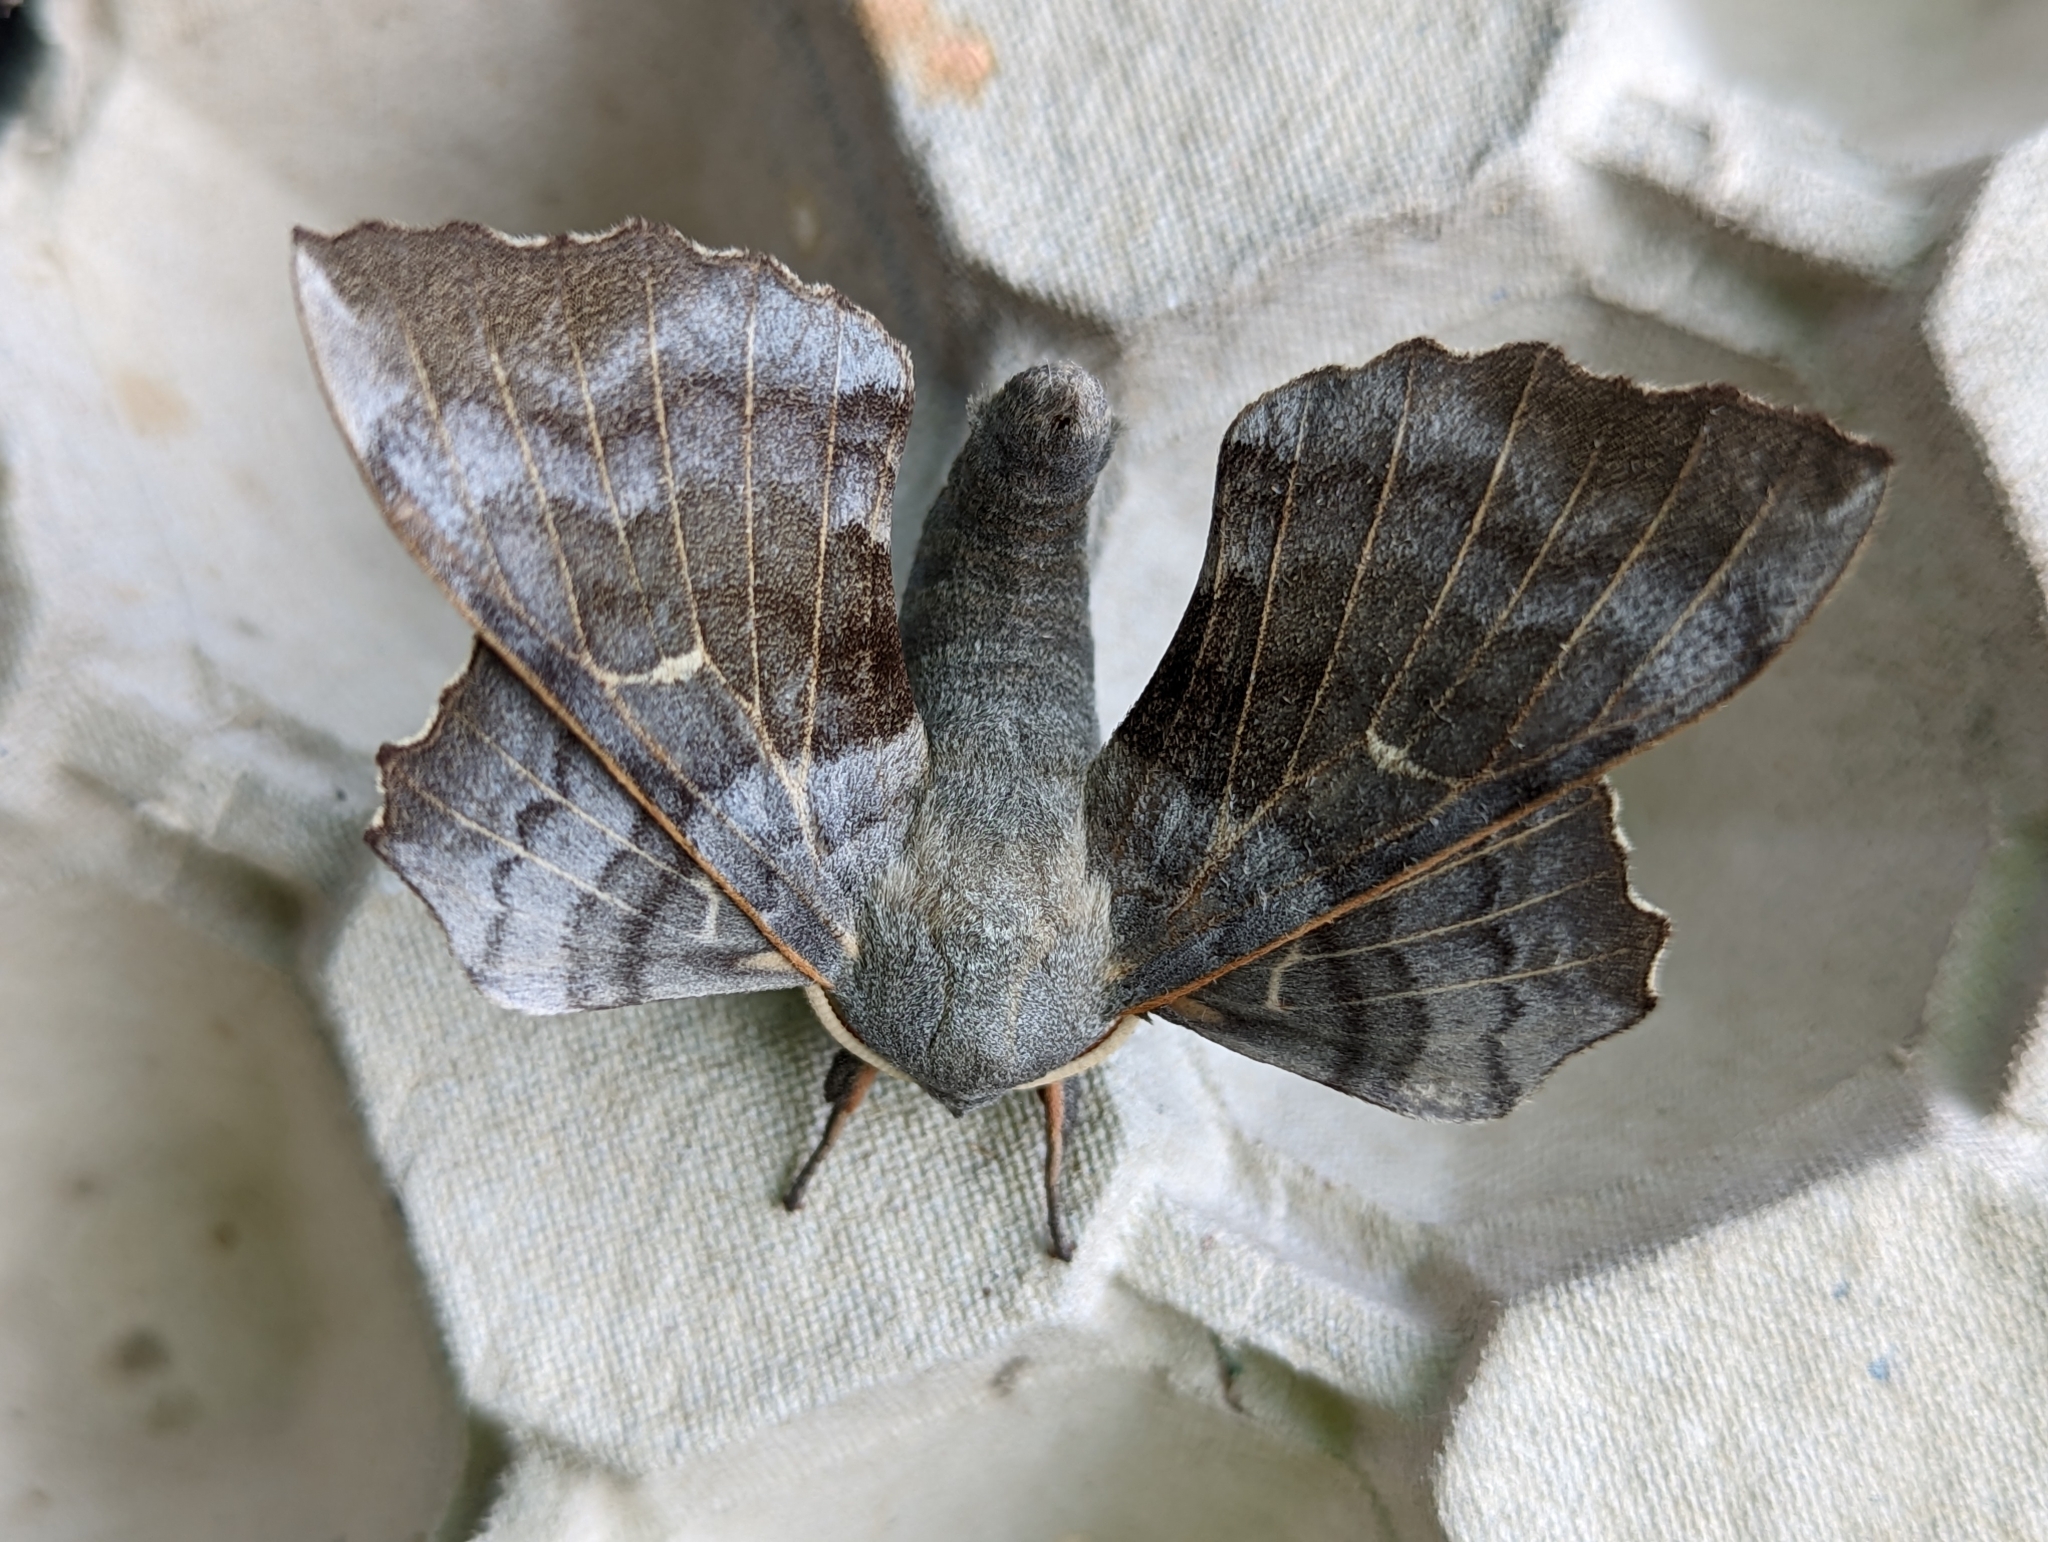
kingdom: Animalia
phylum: Arthropoda
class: Insecta
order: Lepidoptera
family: Sphingidae
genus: Laothoe
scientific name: Laothoe populi
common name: Poplar hawk-moth
